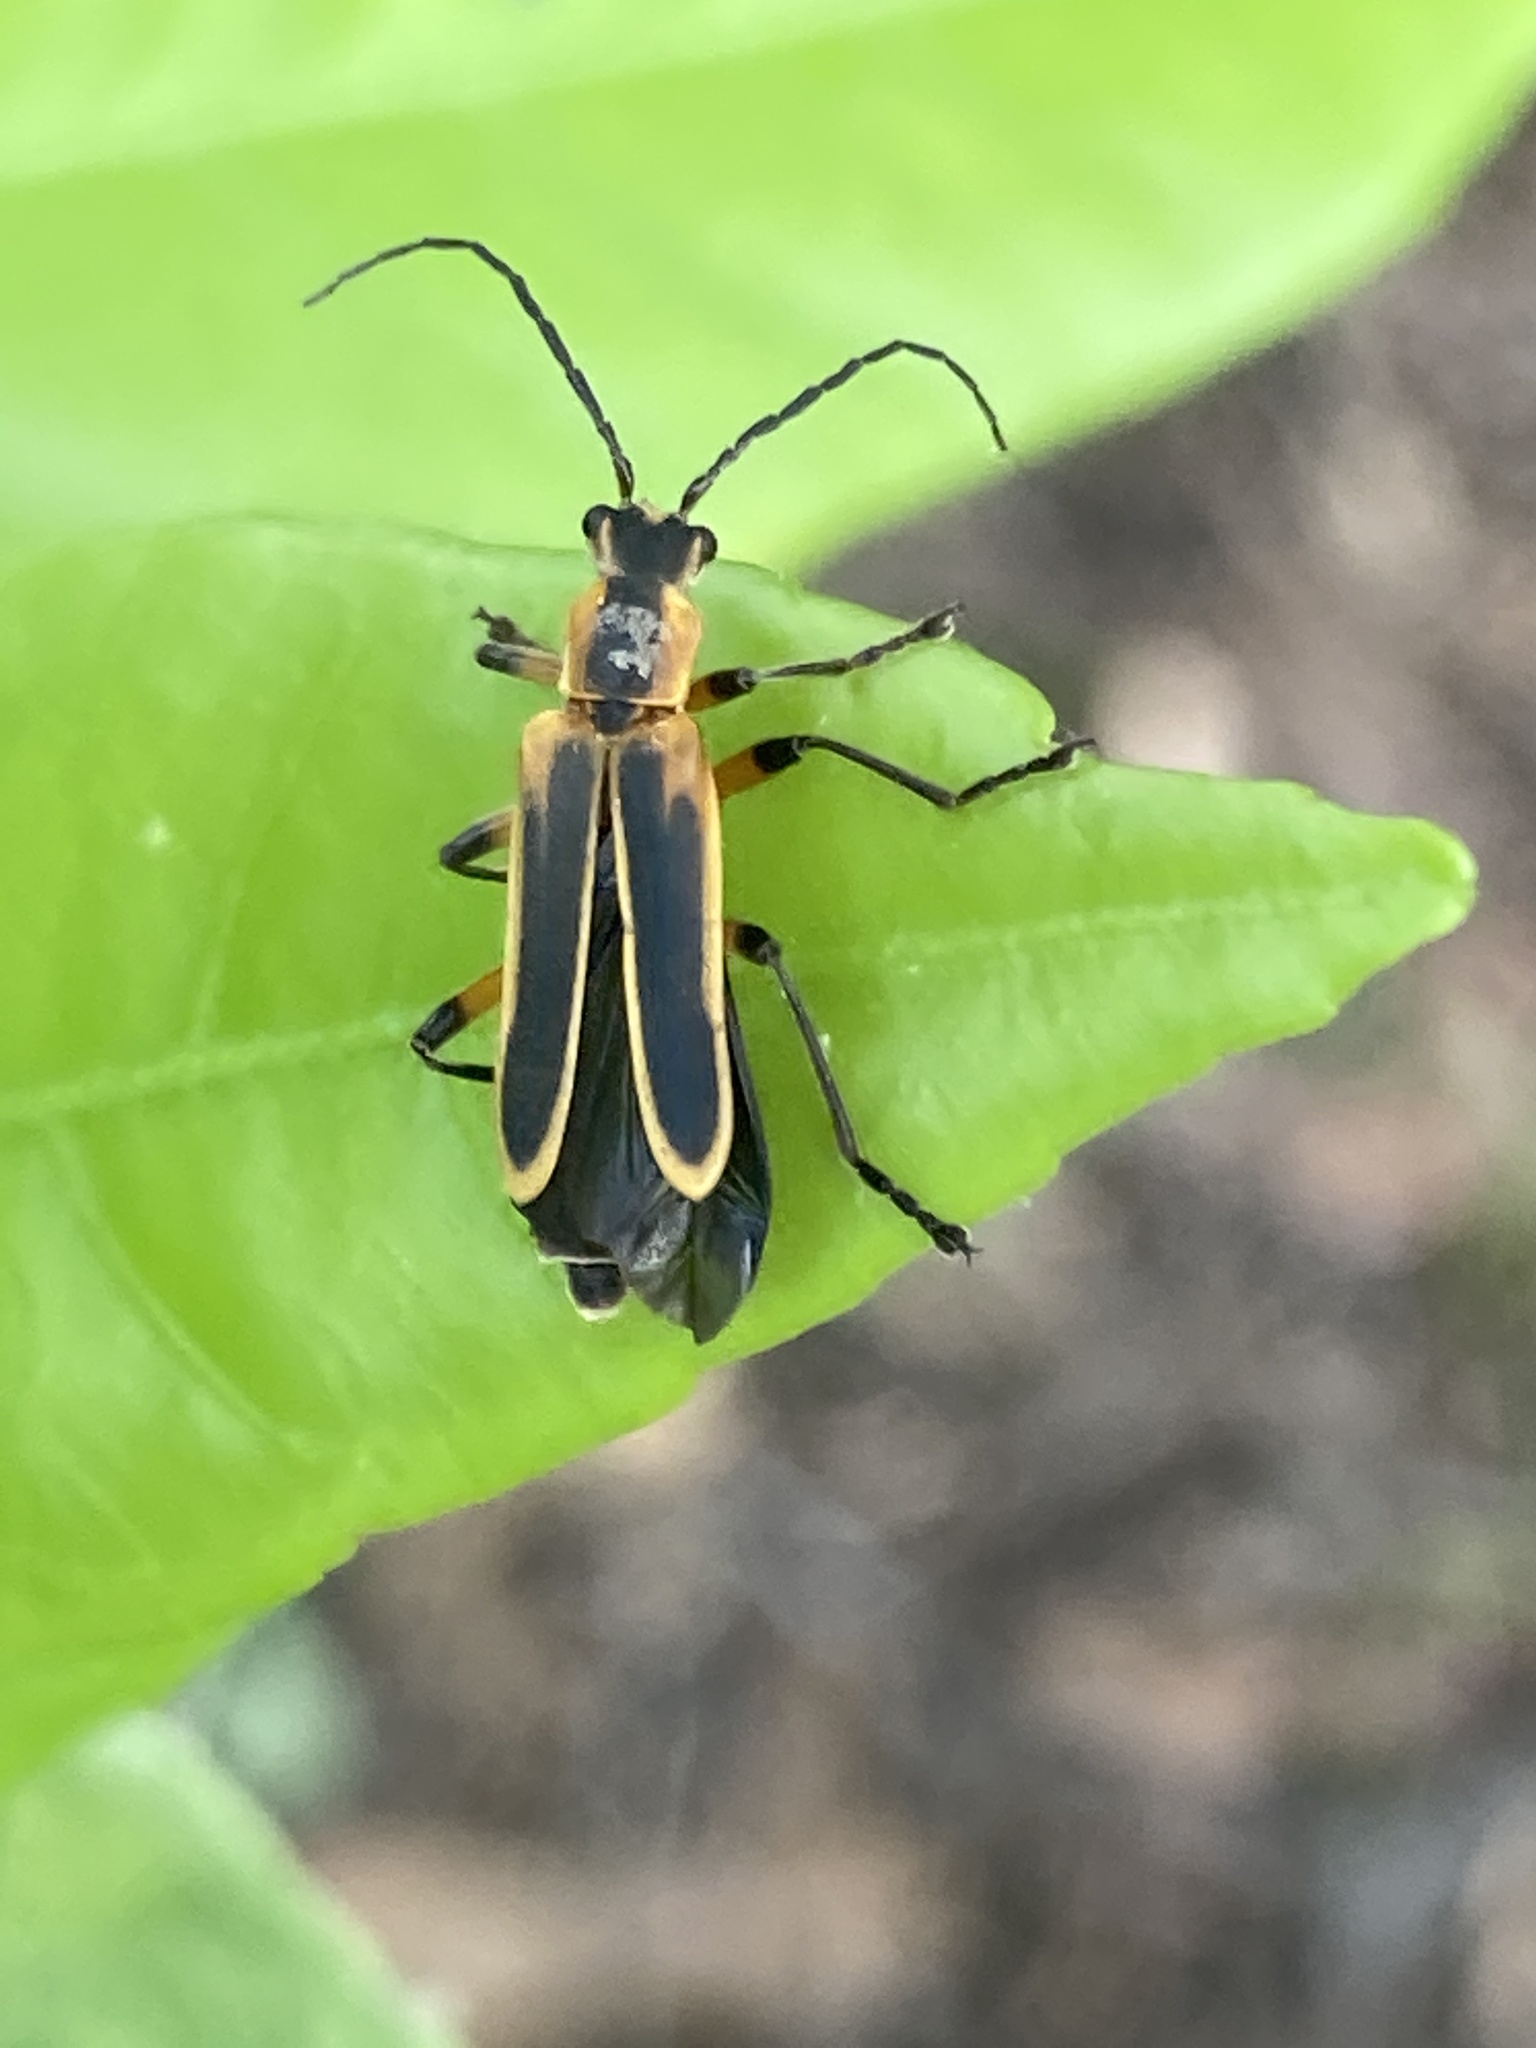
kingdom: Animalia
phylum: Arthropoda
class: Insecta
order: Coleoptera
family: Cantharidae
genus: Chauliognathus
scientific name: Chauliognathus marginatus
